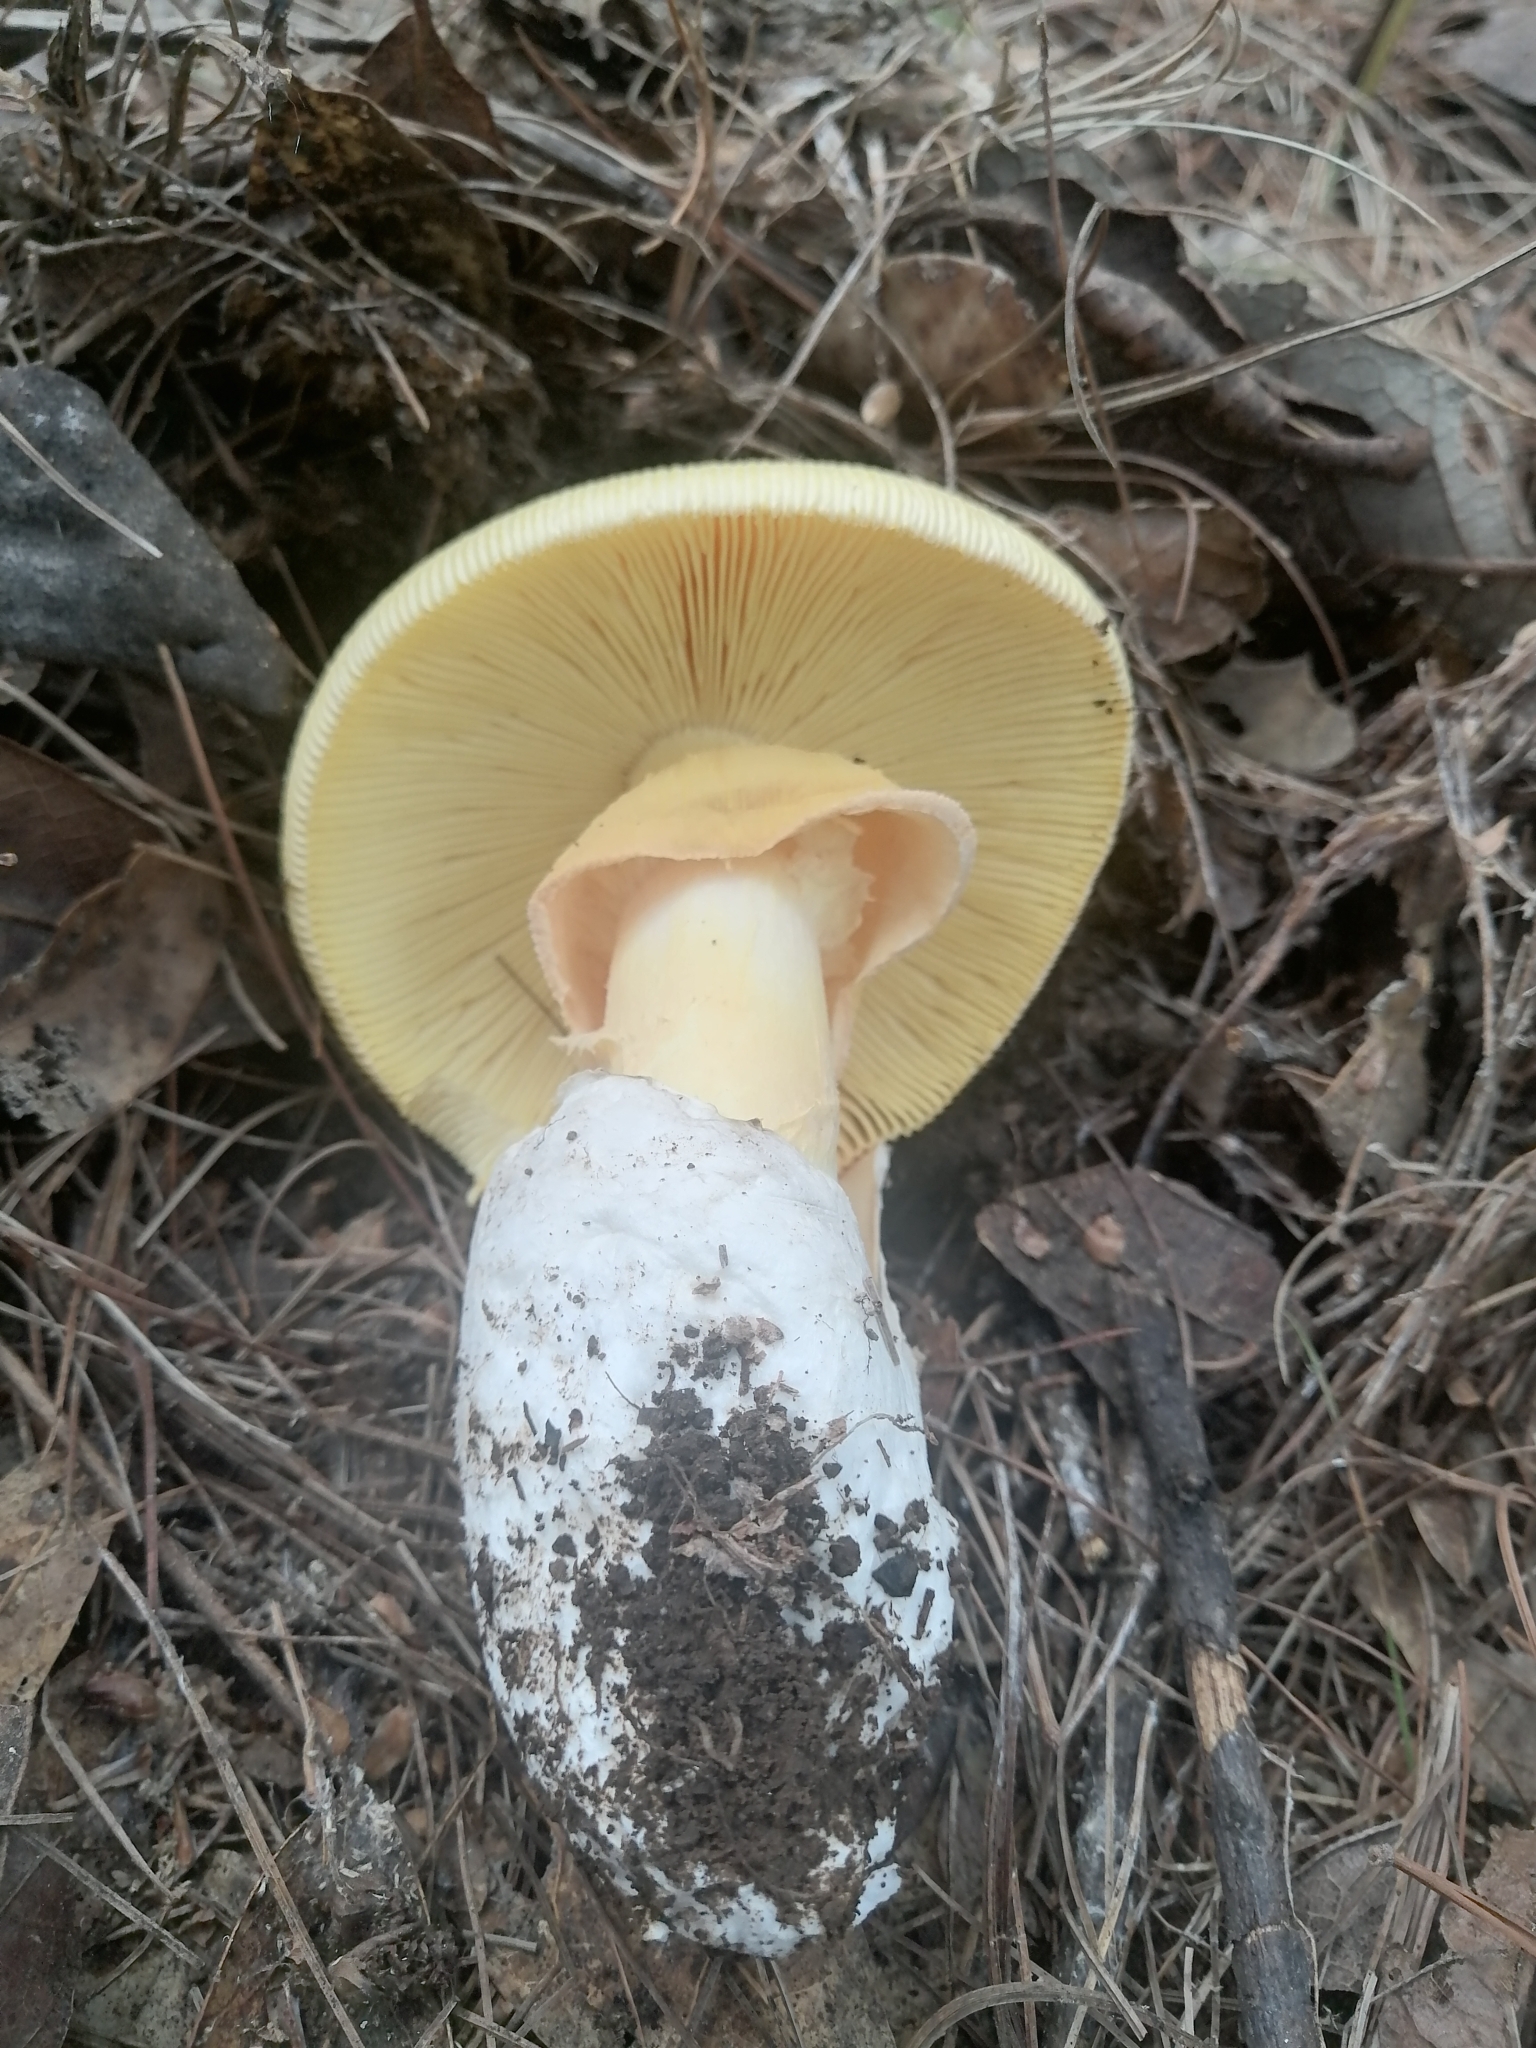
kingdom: Fungi
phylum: Basidiomycota
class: Agaricomycetes
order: Agaricales
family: Amanitaceae
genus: Amanita
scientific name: Amanita basii
